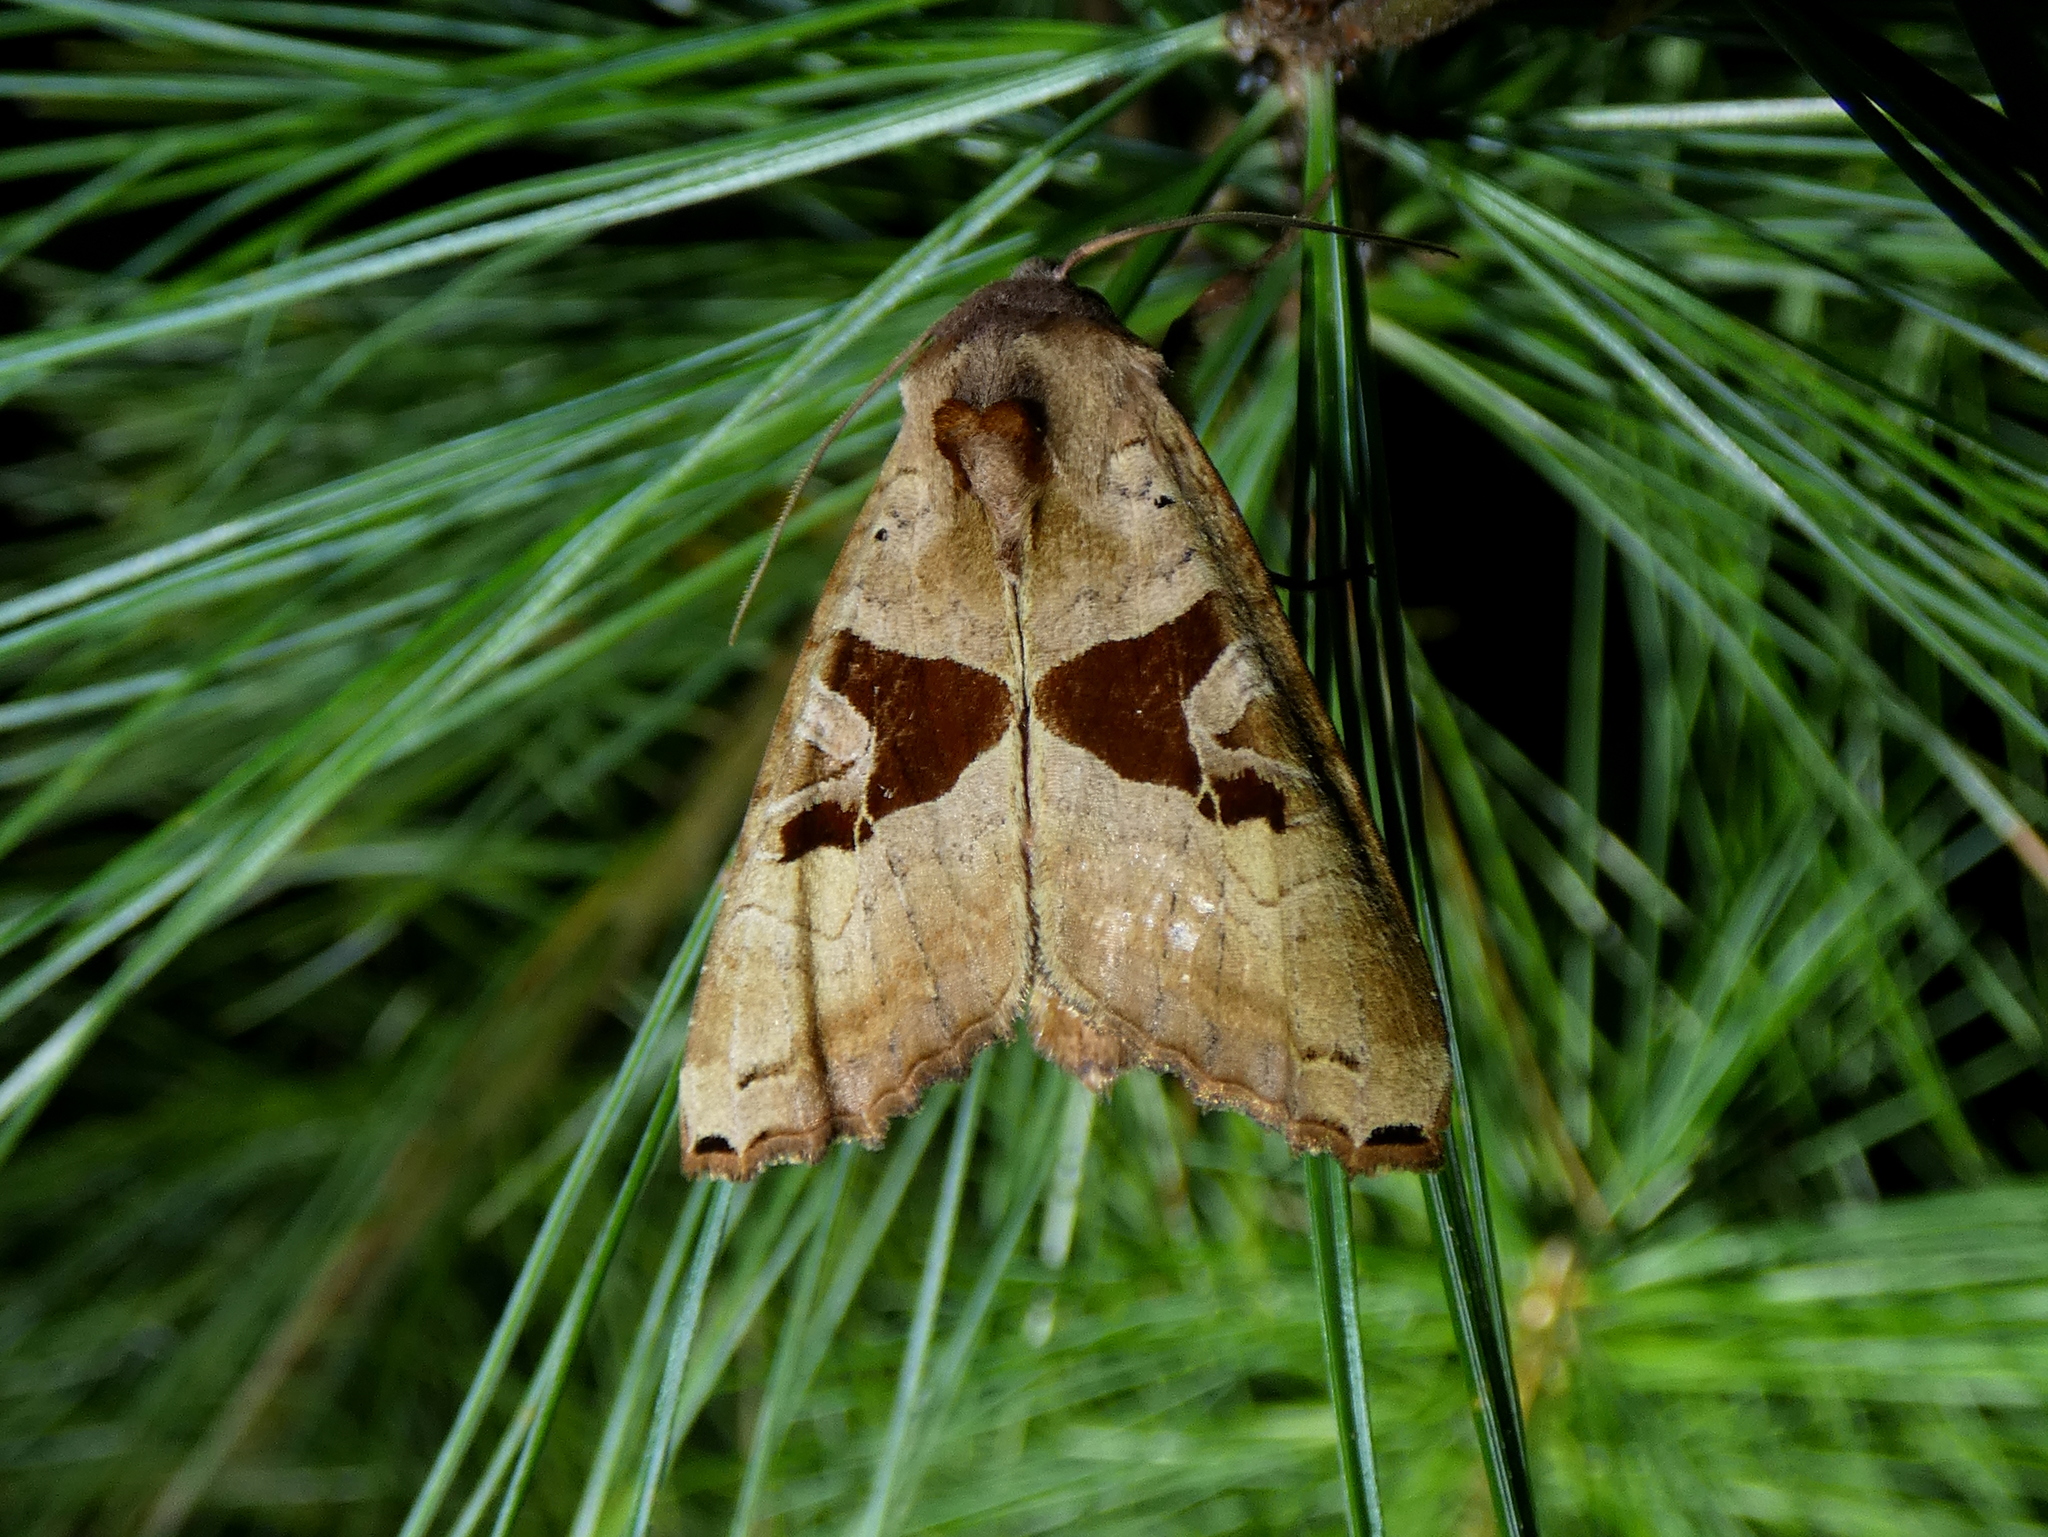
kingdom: Animalia
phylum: Arthropoda
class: Insecta
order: Lepidoptera
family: Noctuidae
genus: Phlogophora
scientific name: Phlogophora periculosa
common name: Brown angle shades
